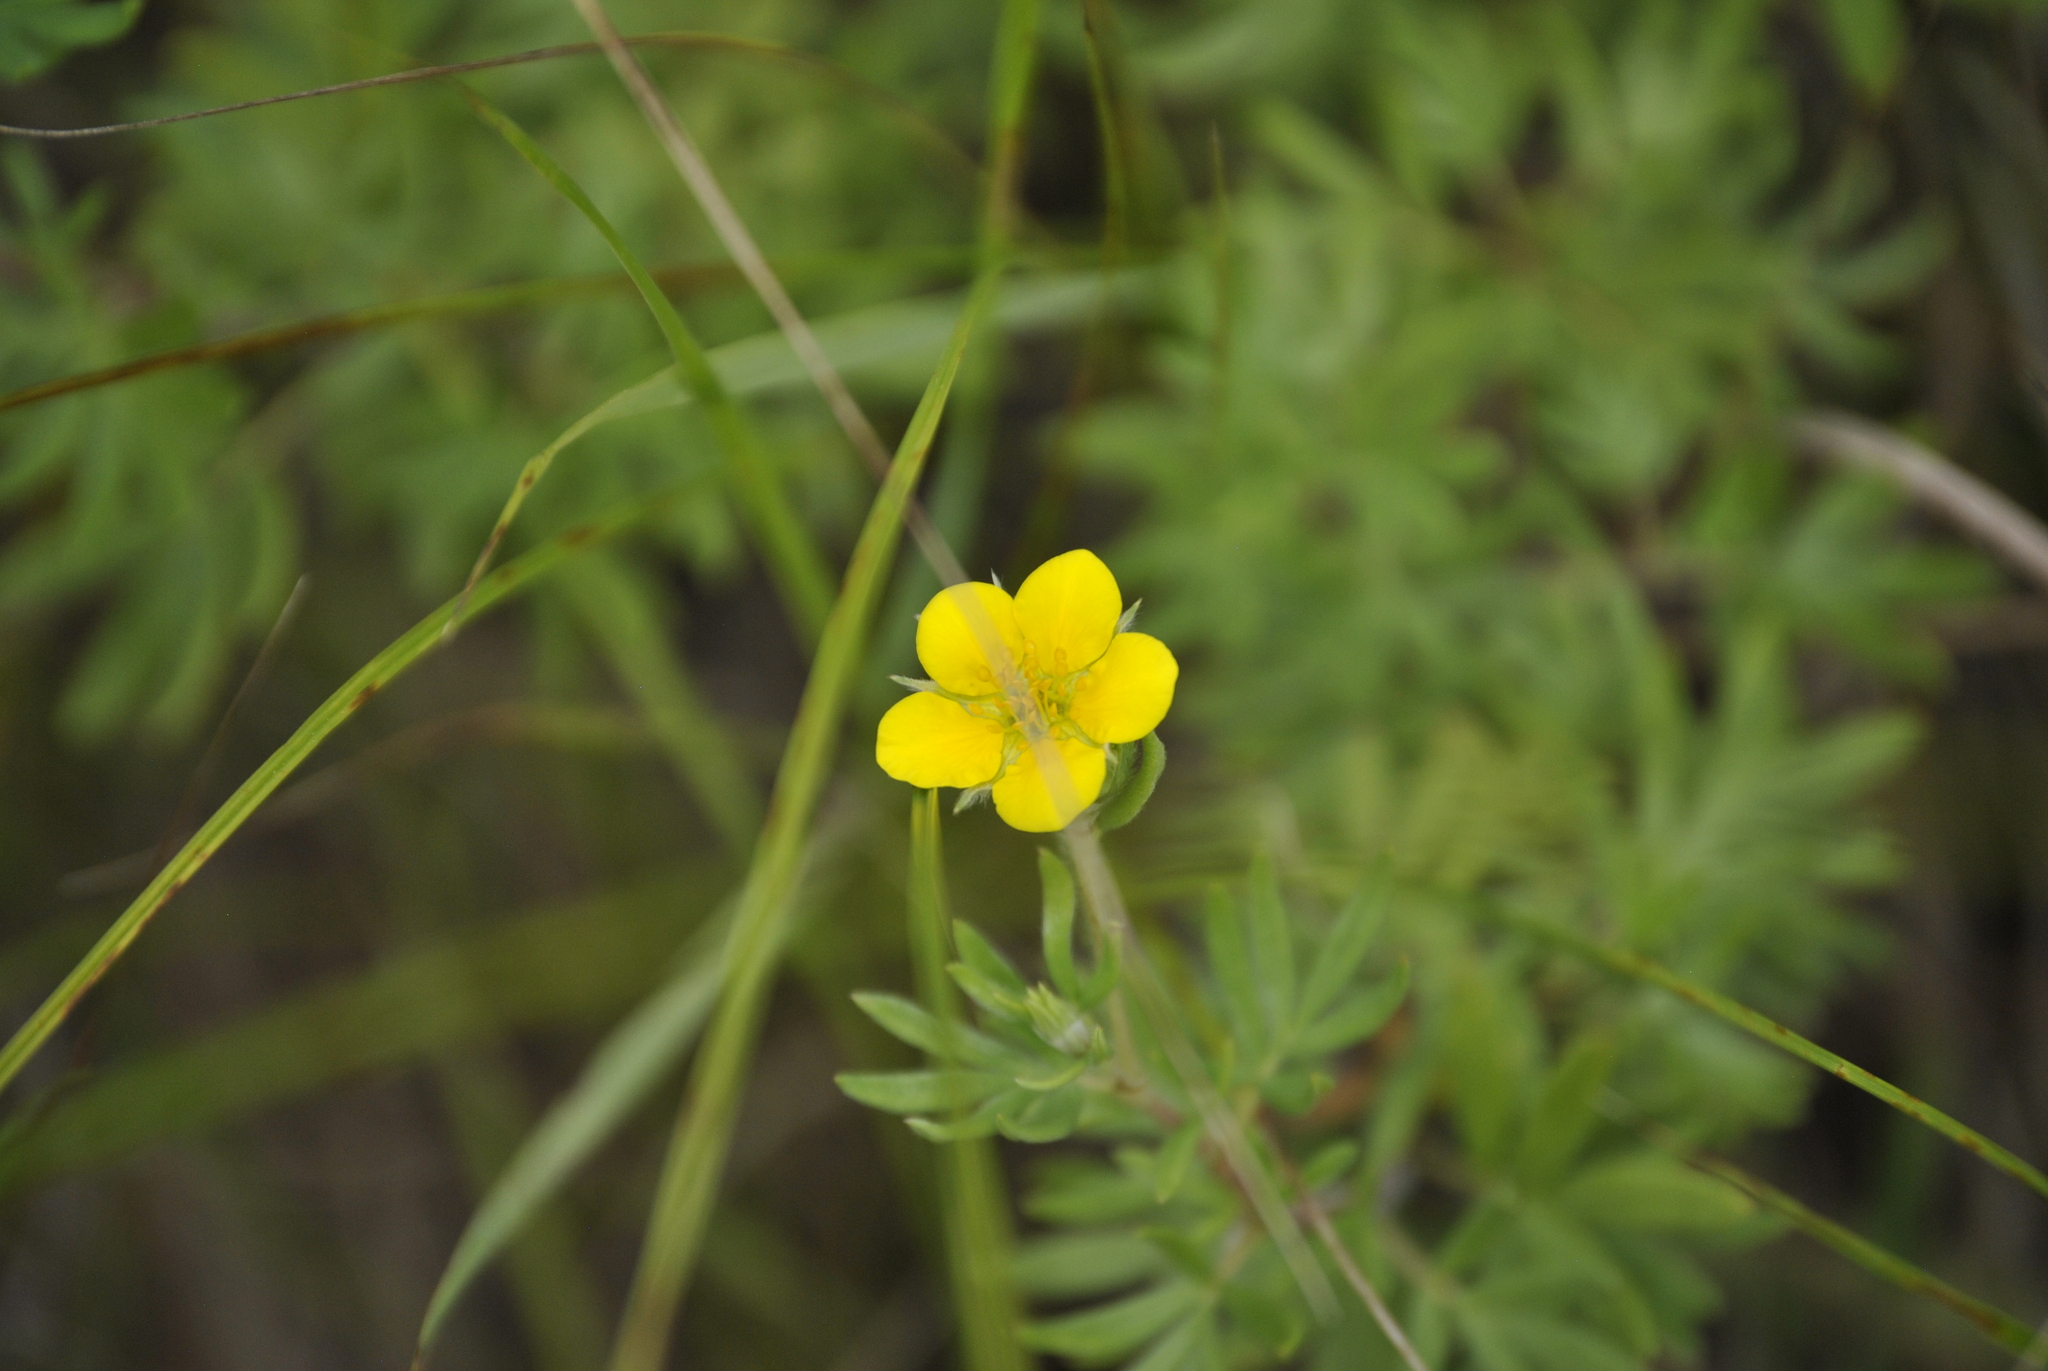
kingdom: Plantae
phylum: Tracheophyta
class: Magnoliopsida
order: Rosales
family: Rosaceae
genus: Dasiphora
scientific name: Dasiphora fruticosa
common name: Shrubby cinquefoil
